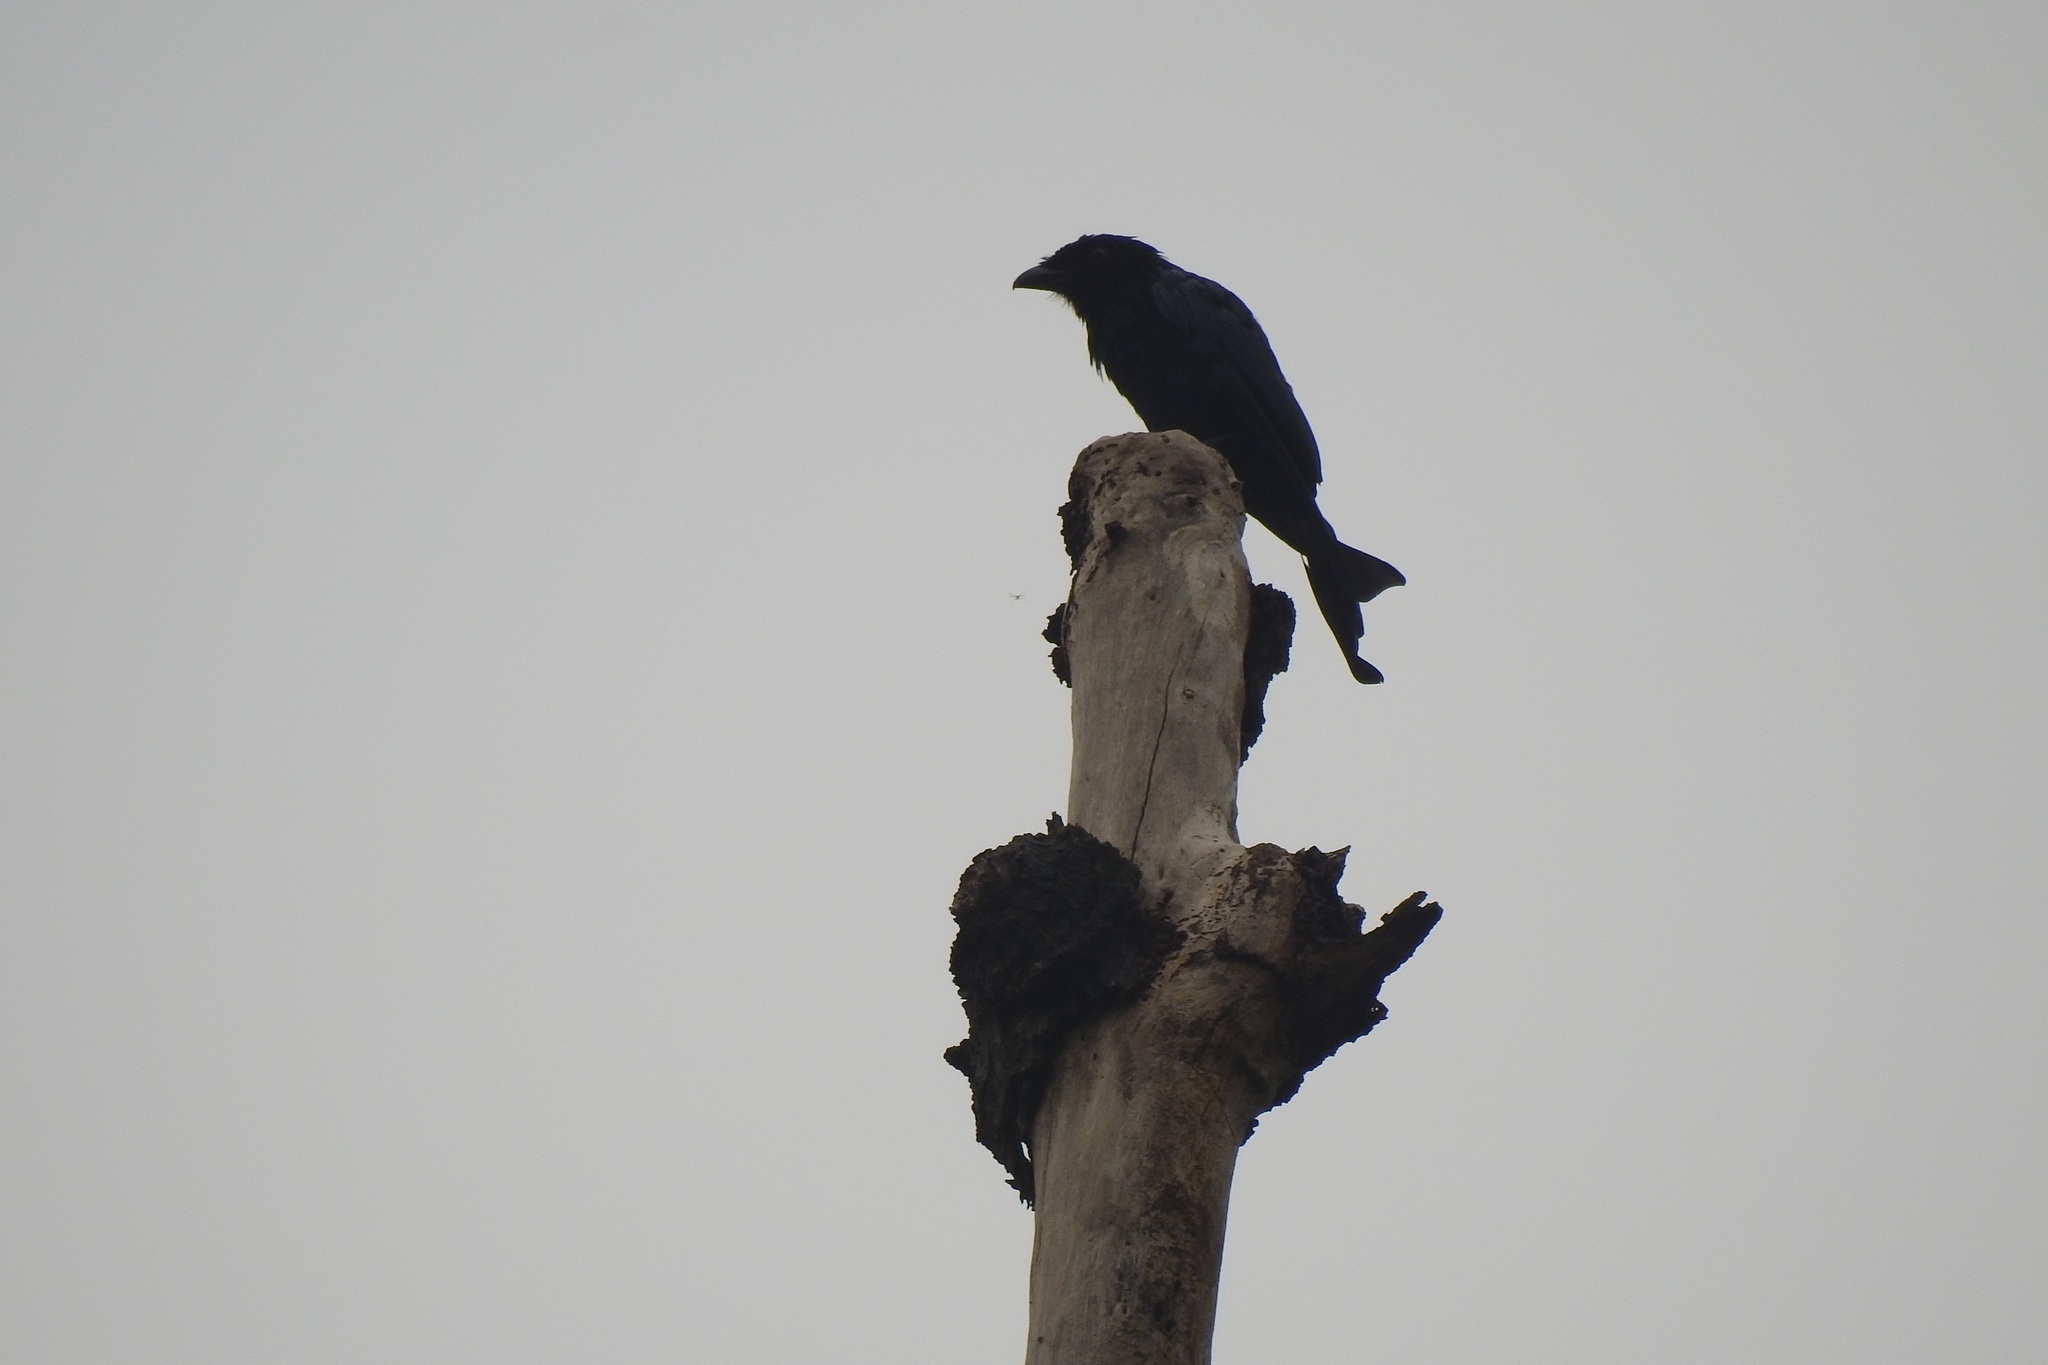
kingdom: Animalia
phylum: Chordata
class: Aves
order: Passeriformes
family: Dicruridae
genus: Dicrurus
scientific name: Dicrurus annectens
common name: Crow-billed drongo
